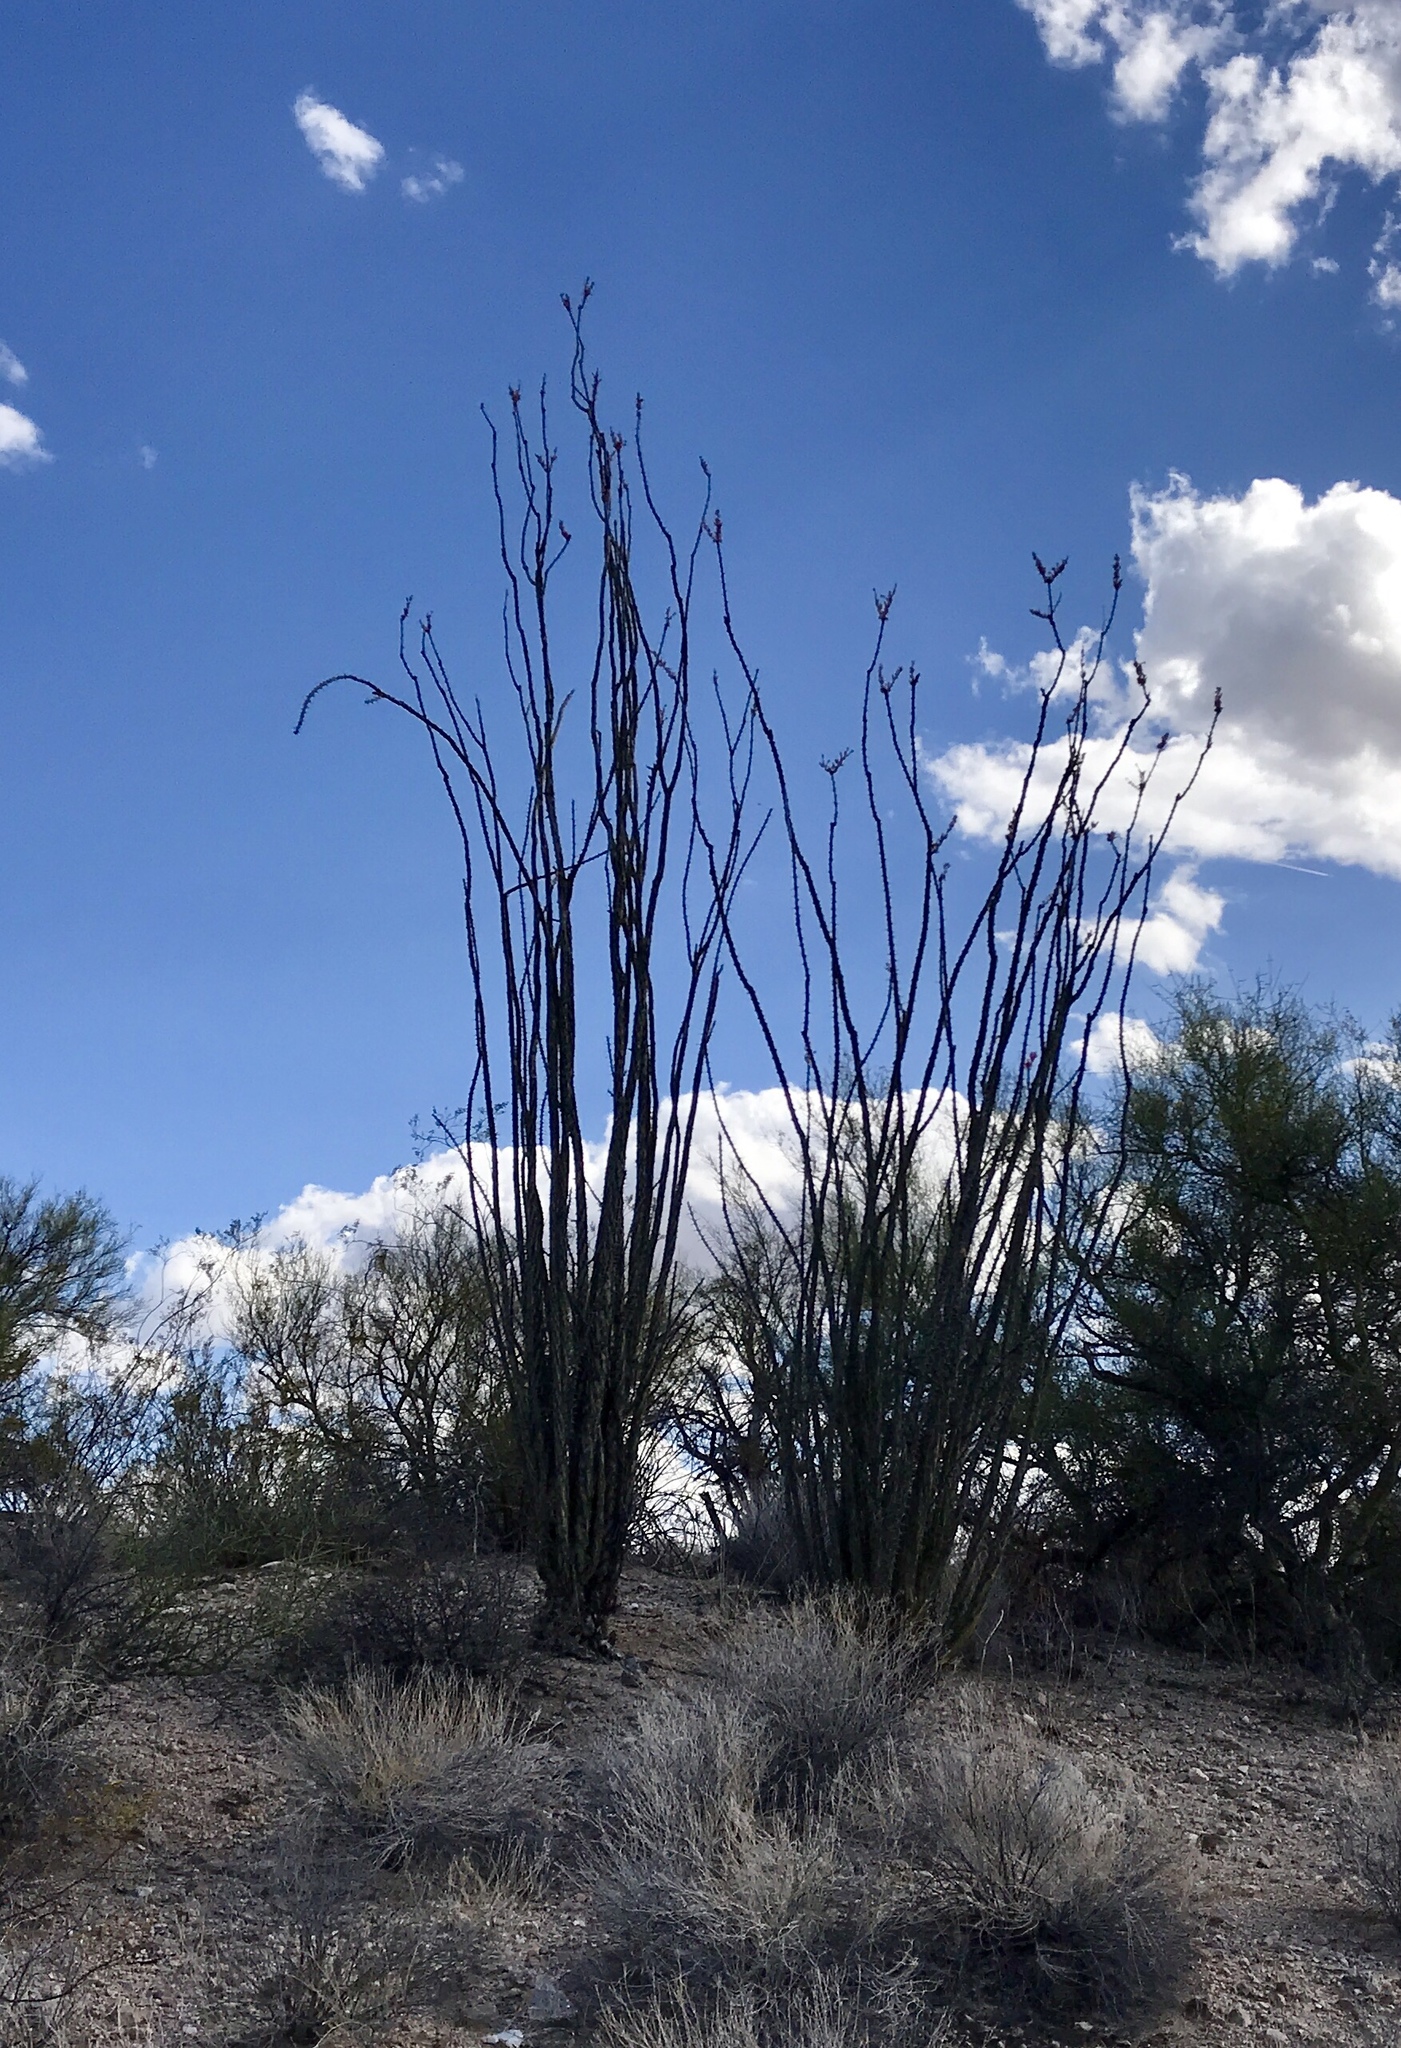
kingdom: Plantae
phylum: Tracheophyta
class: Magnoliopsida
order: Ericales
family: Fouquieriaceae
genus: Fouquieria
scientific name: Fouquieria splendens
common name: Vine-cactus
